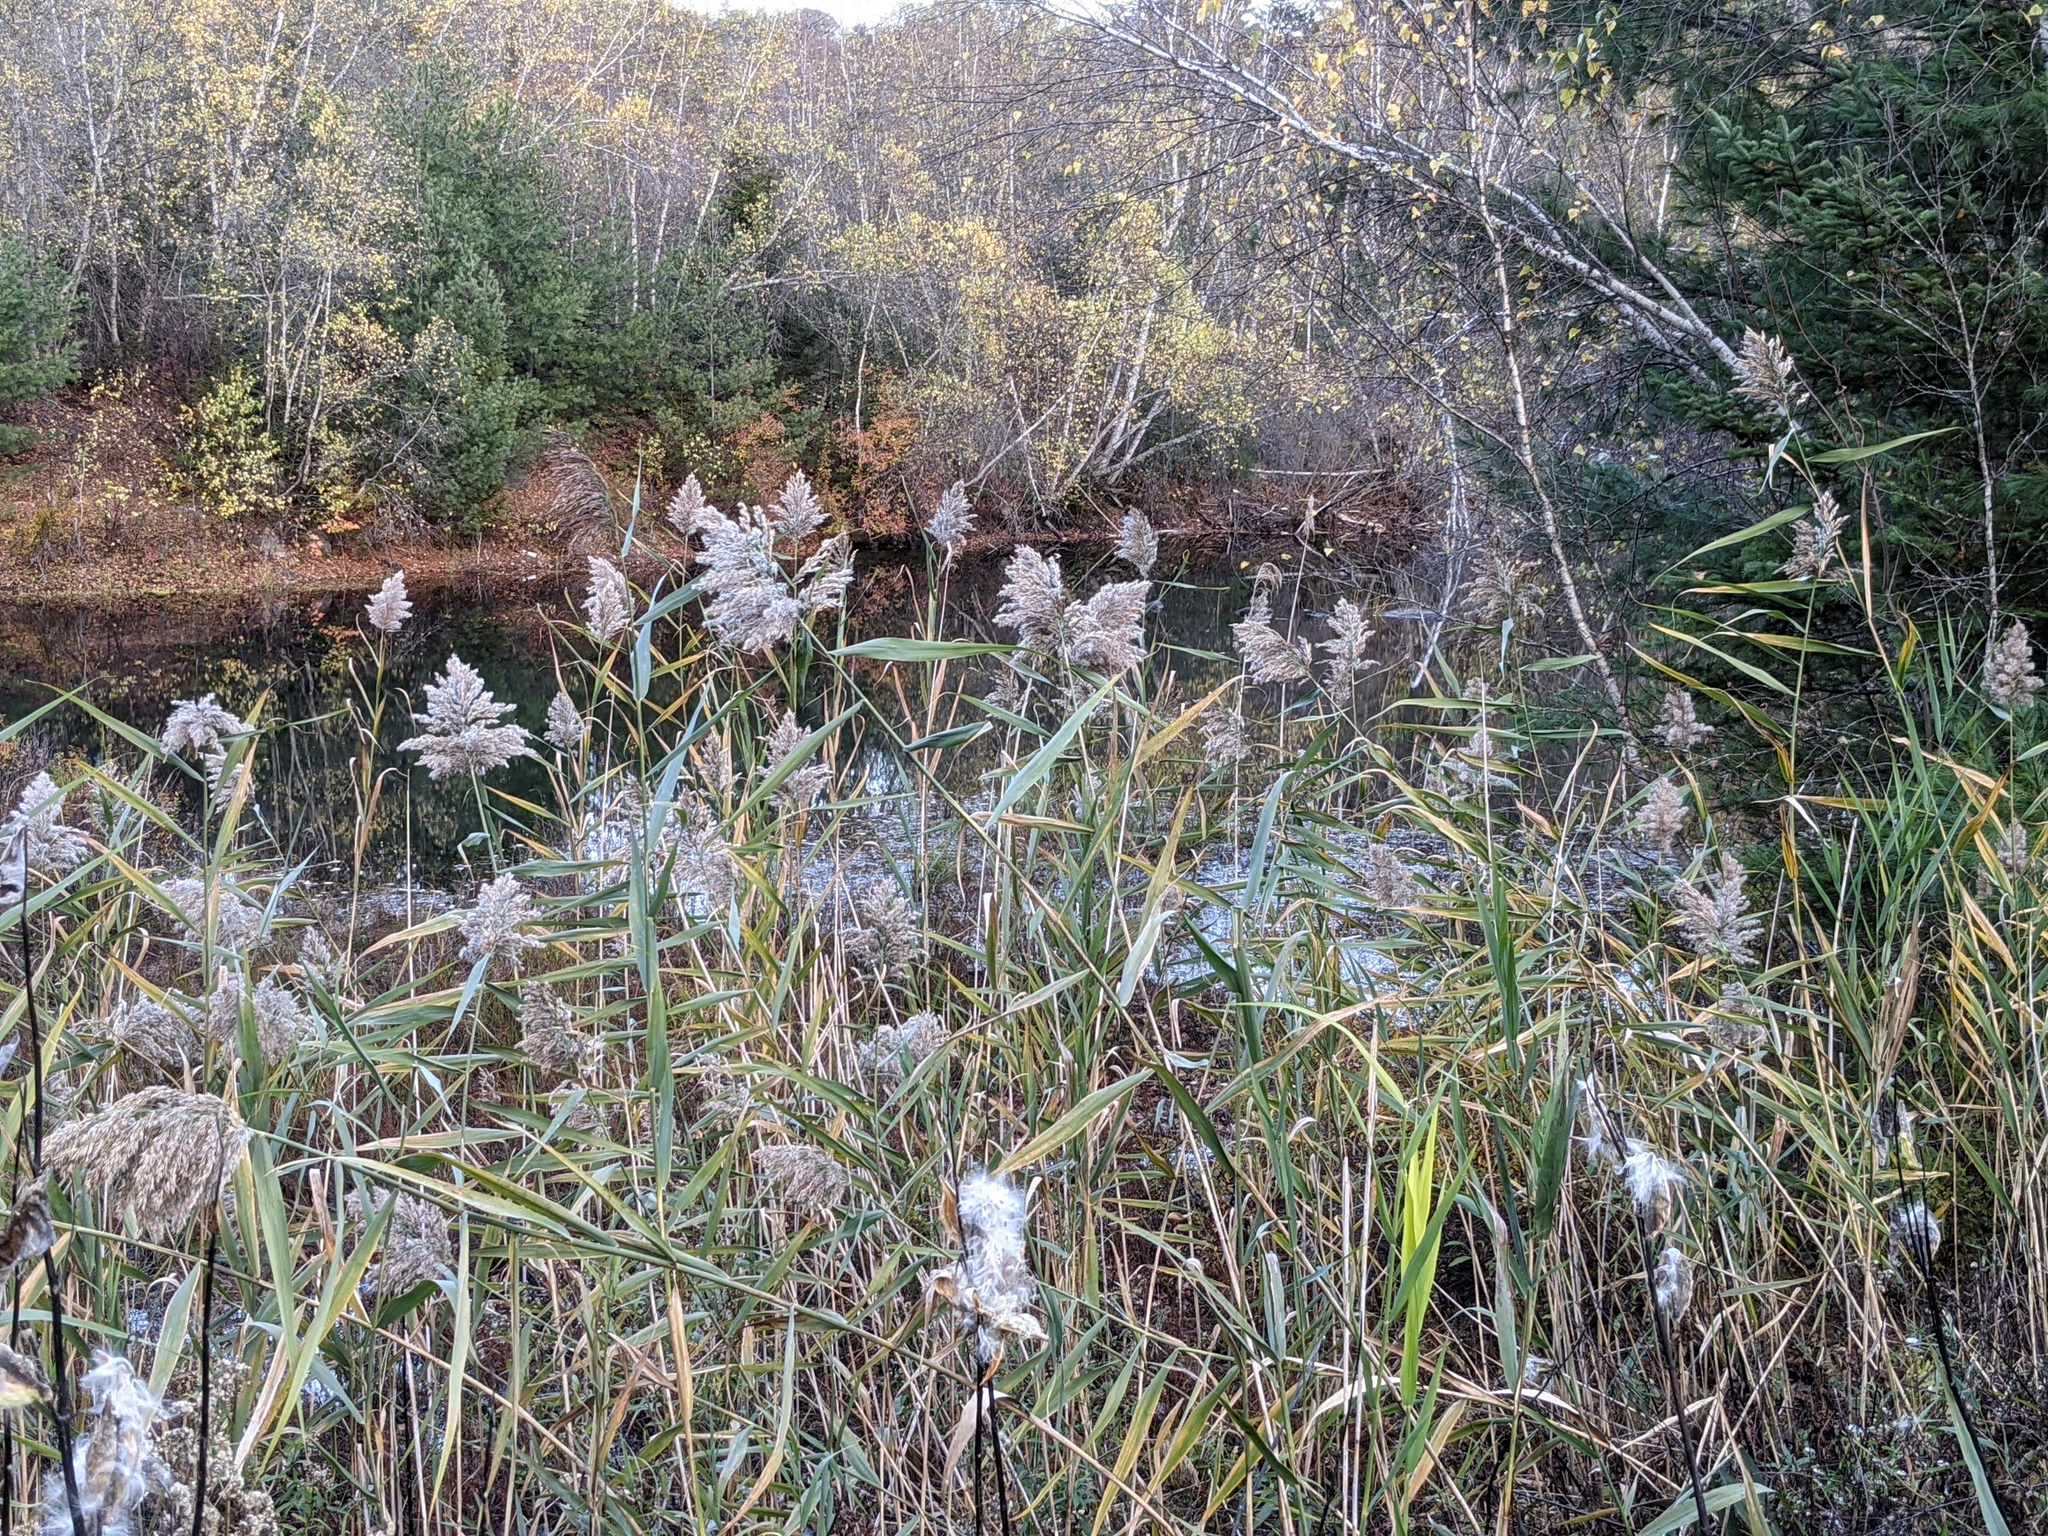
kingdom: Plantae
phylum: Tracheophyta
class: Liliopsida
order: Poales
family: Poaceae
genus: Phragmites
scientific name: Phragmites australis
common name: Common reed
